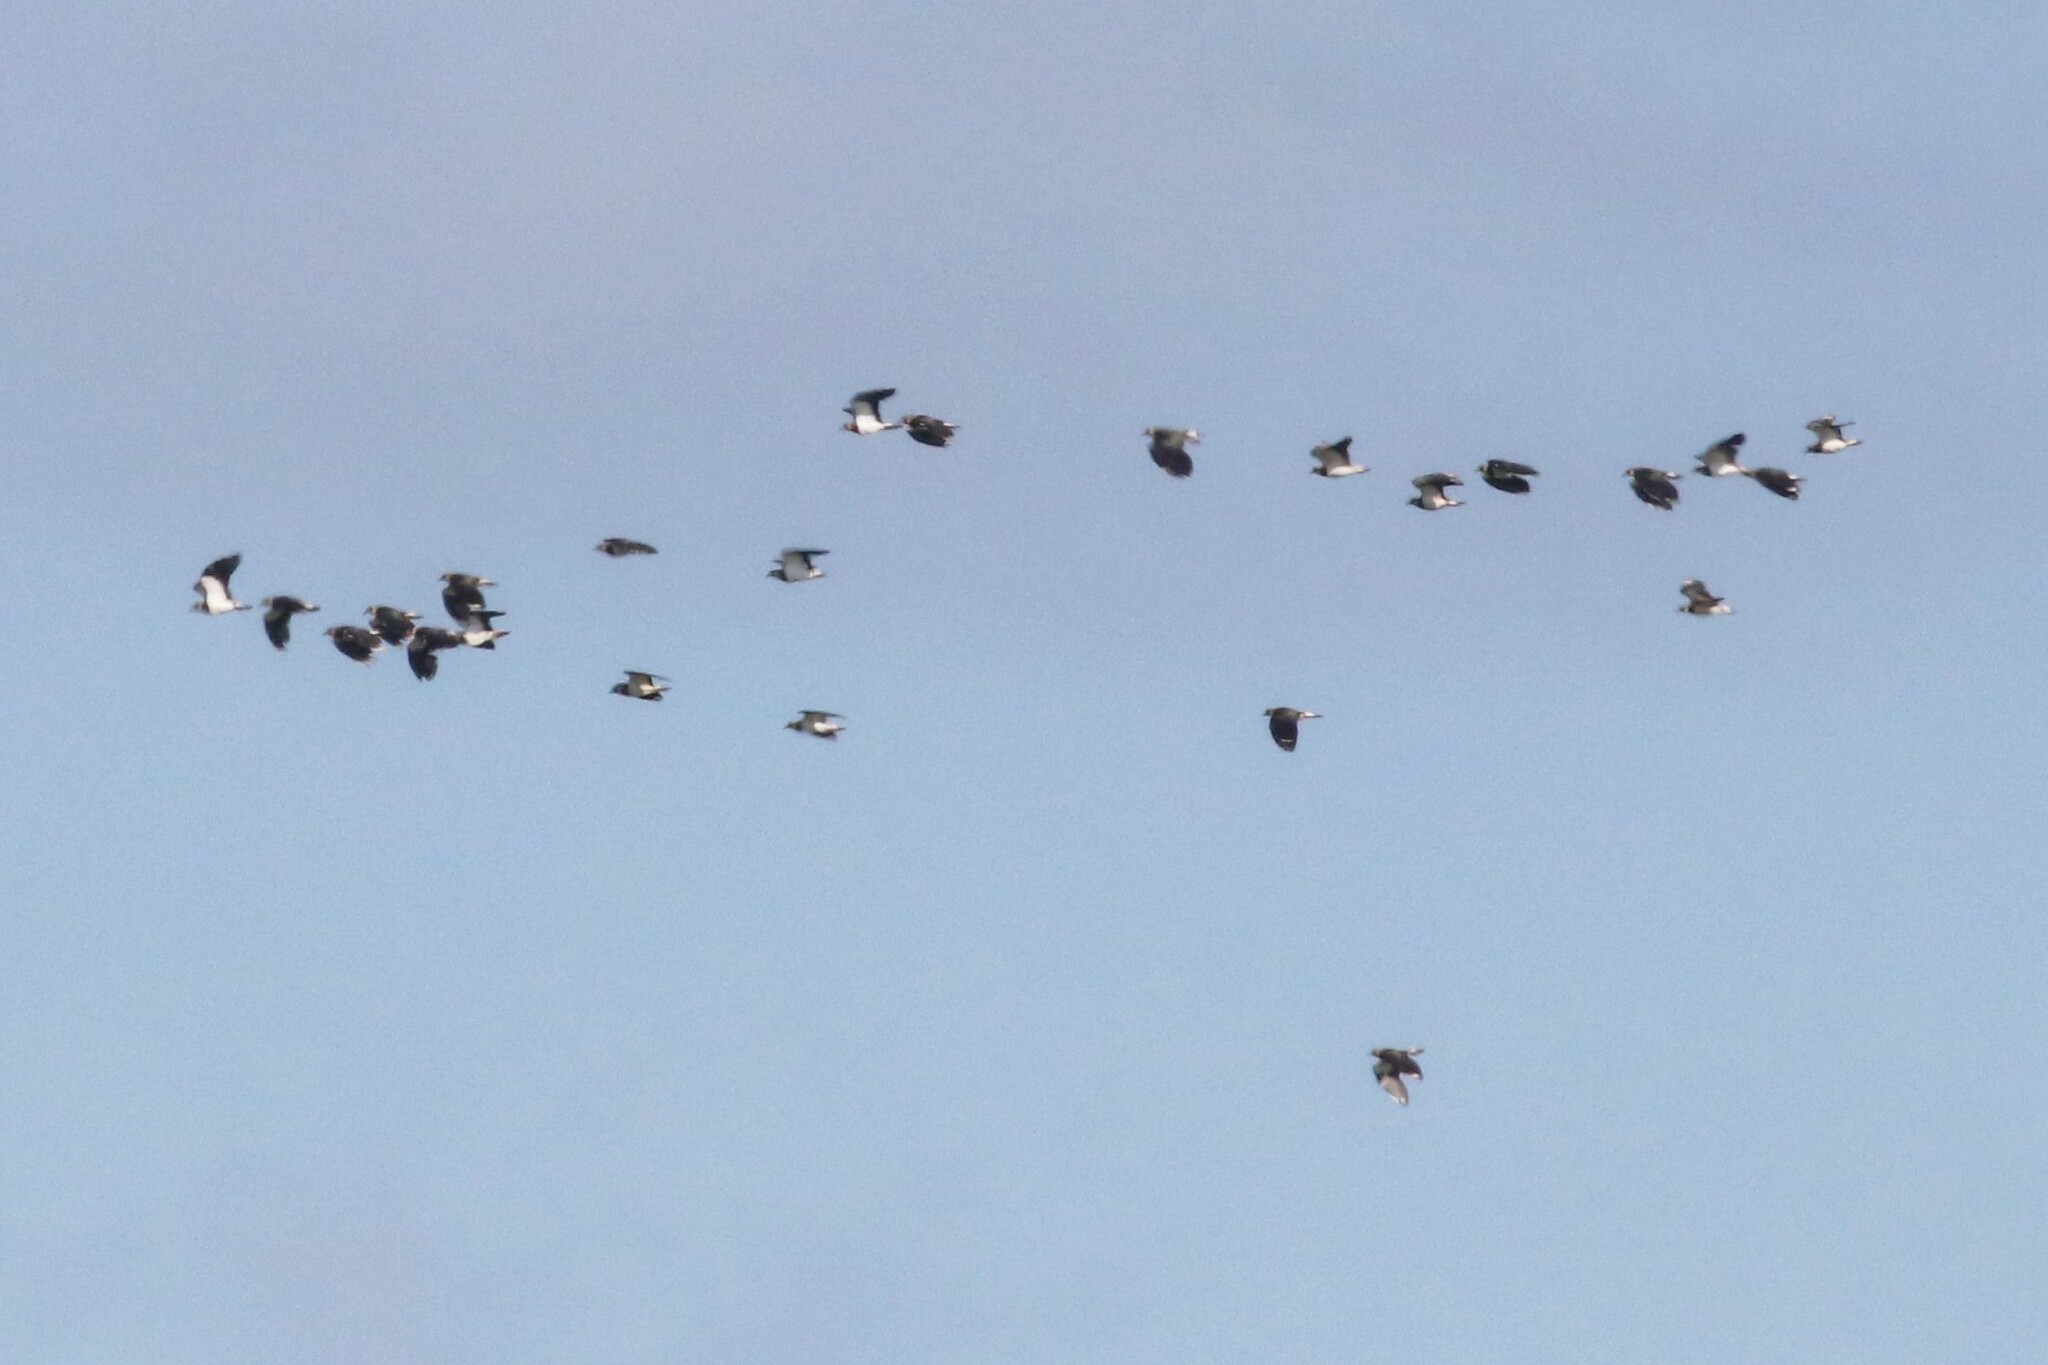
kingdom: Animalia
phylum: Chordata
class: Aves
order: Charadriiformes
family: Charadriidae
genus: Vanellus
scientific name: Vanellus vanellus
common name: Northern lapwing
